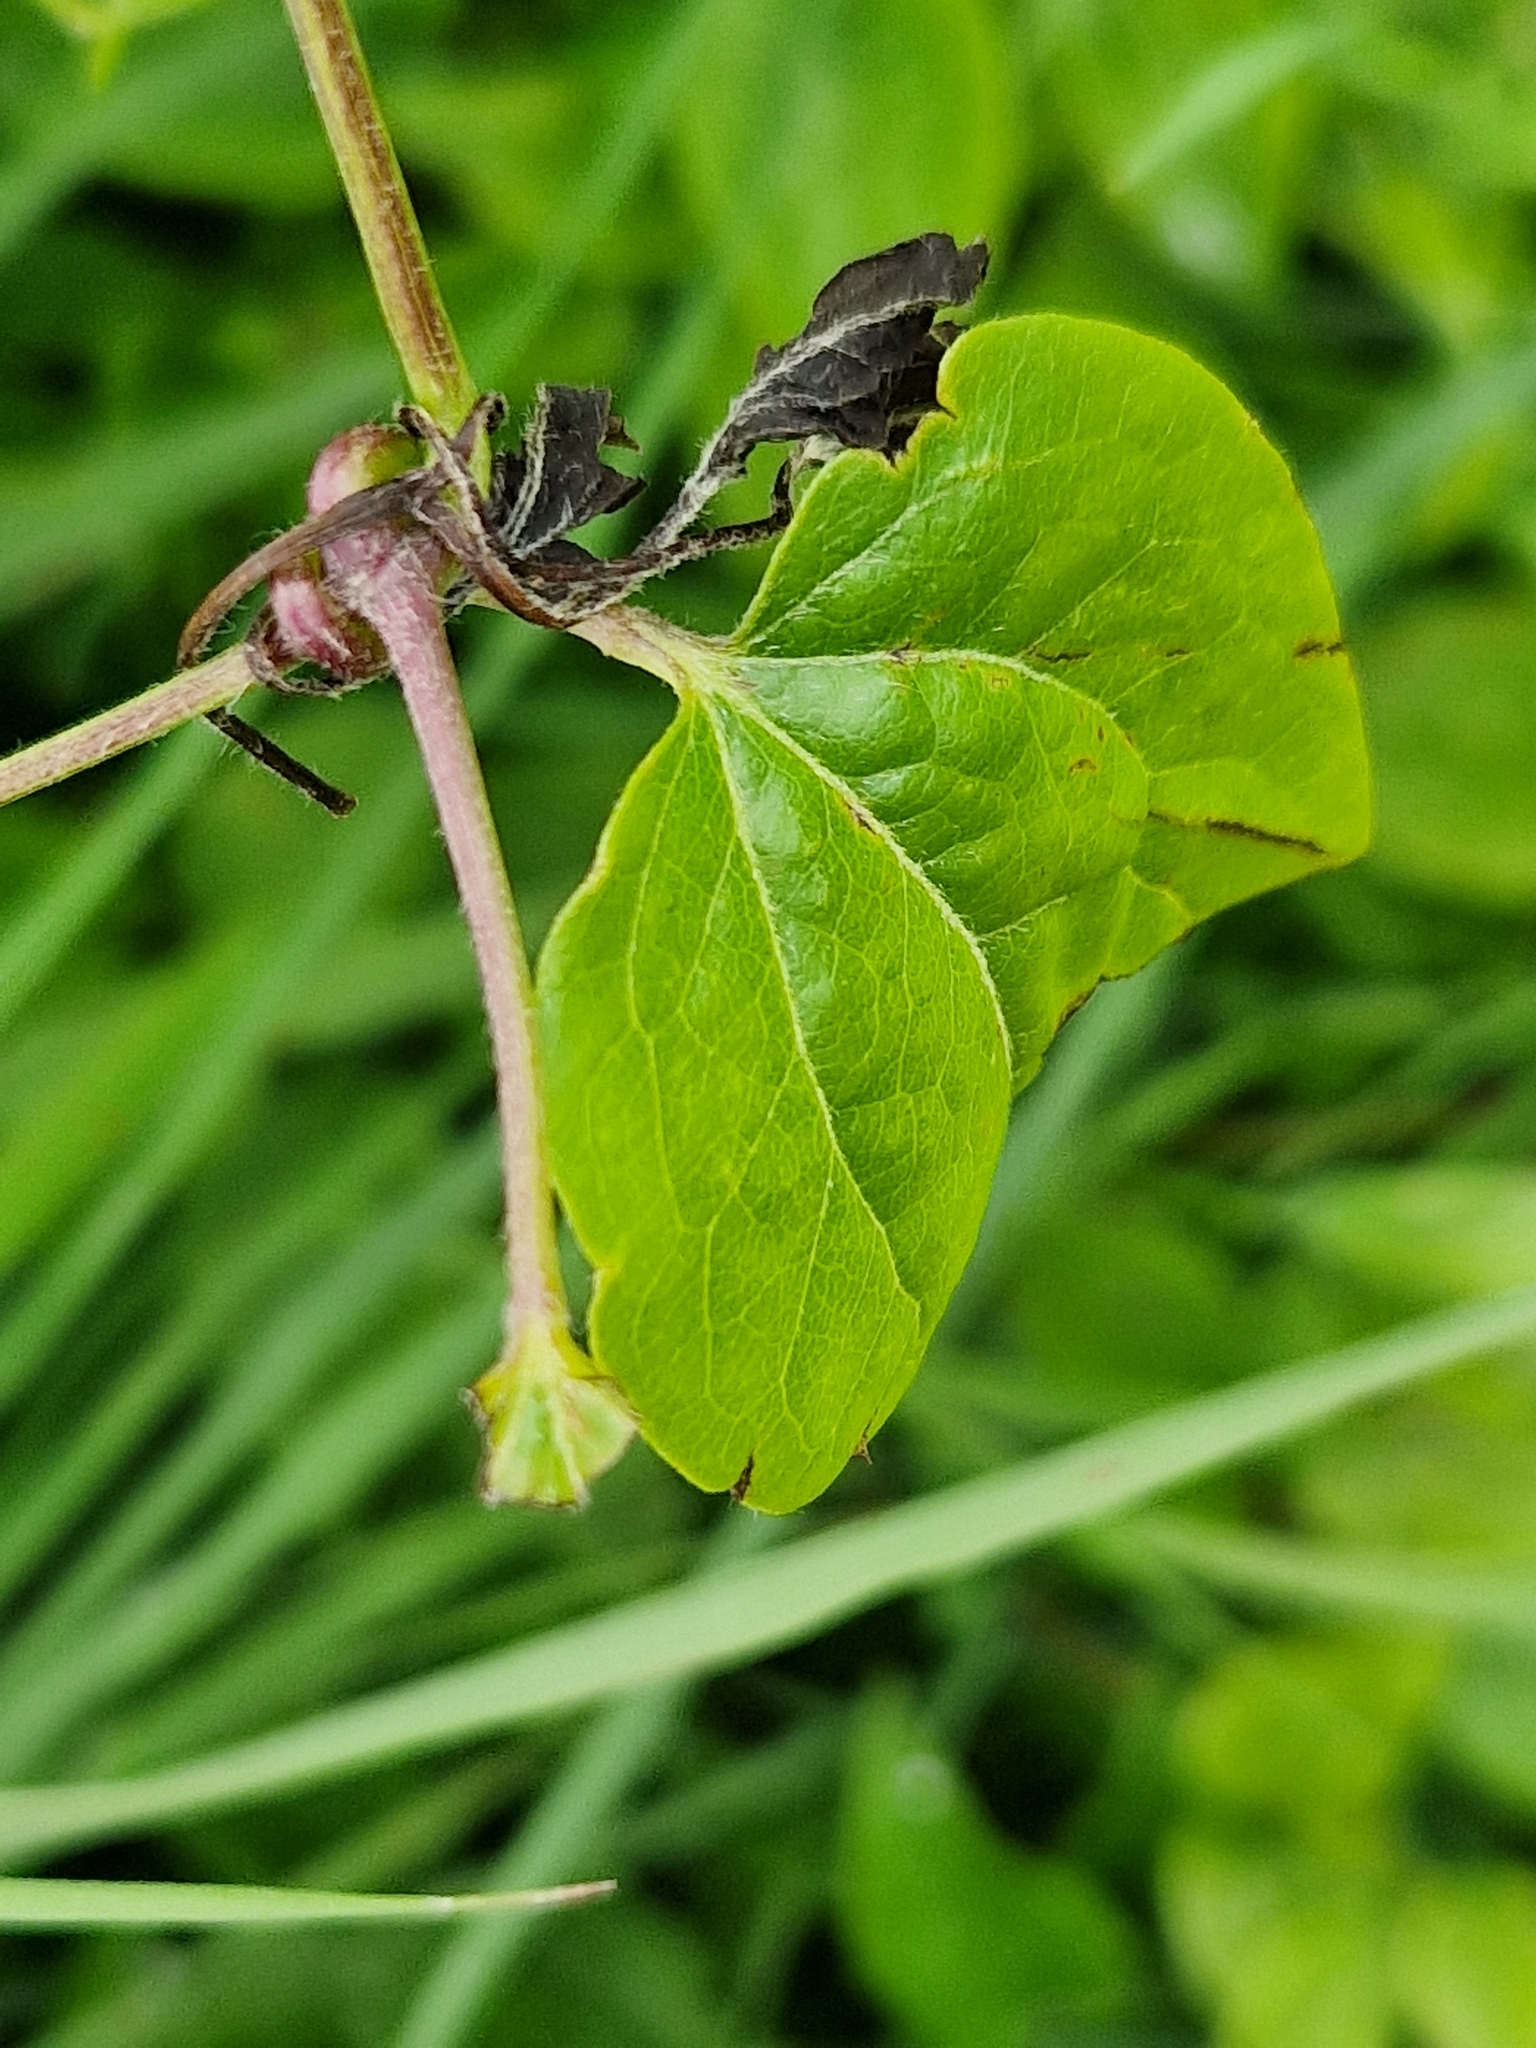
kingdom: Plantae
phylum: Tracheophyta
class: Magnoliopsida
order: Ranunculales
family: Ranunculaceae
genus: Clematis
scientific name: Clematis vitalba
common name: Evergreen clematis
